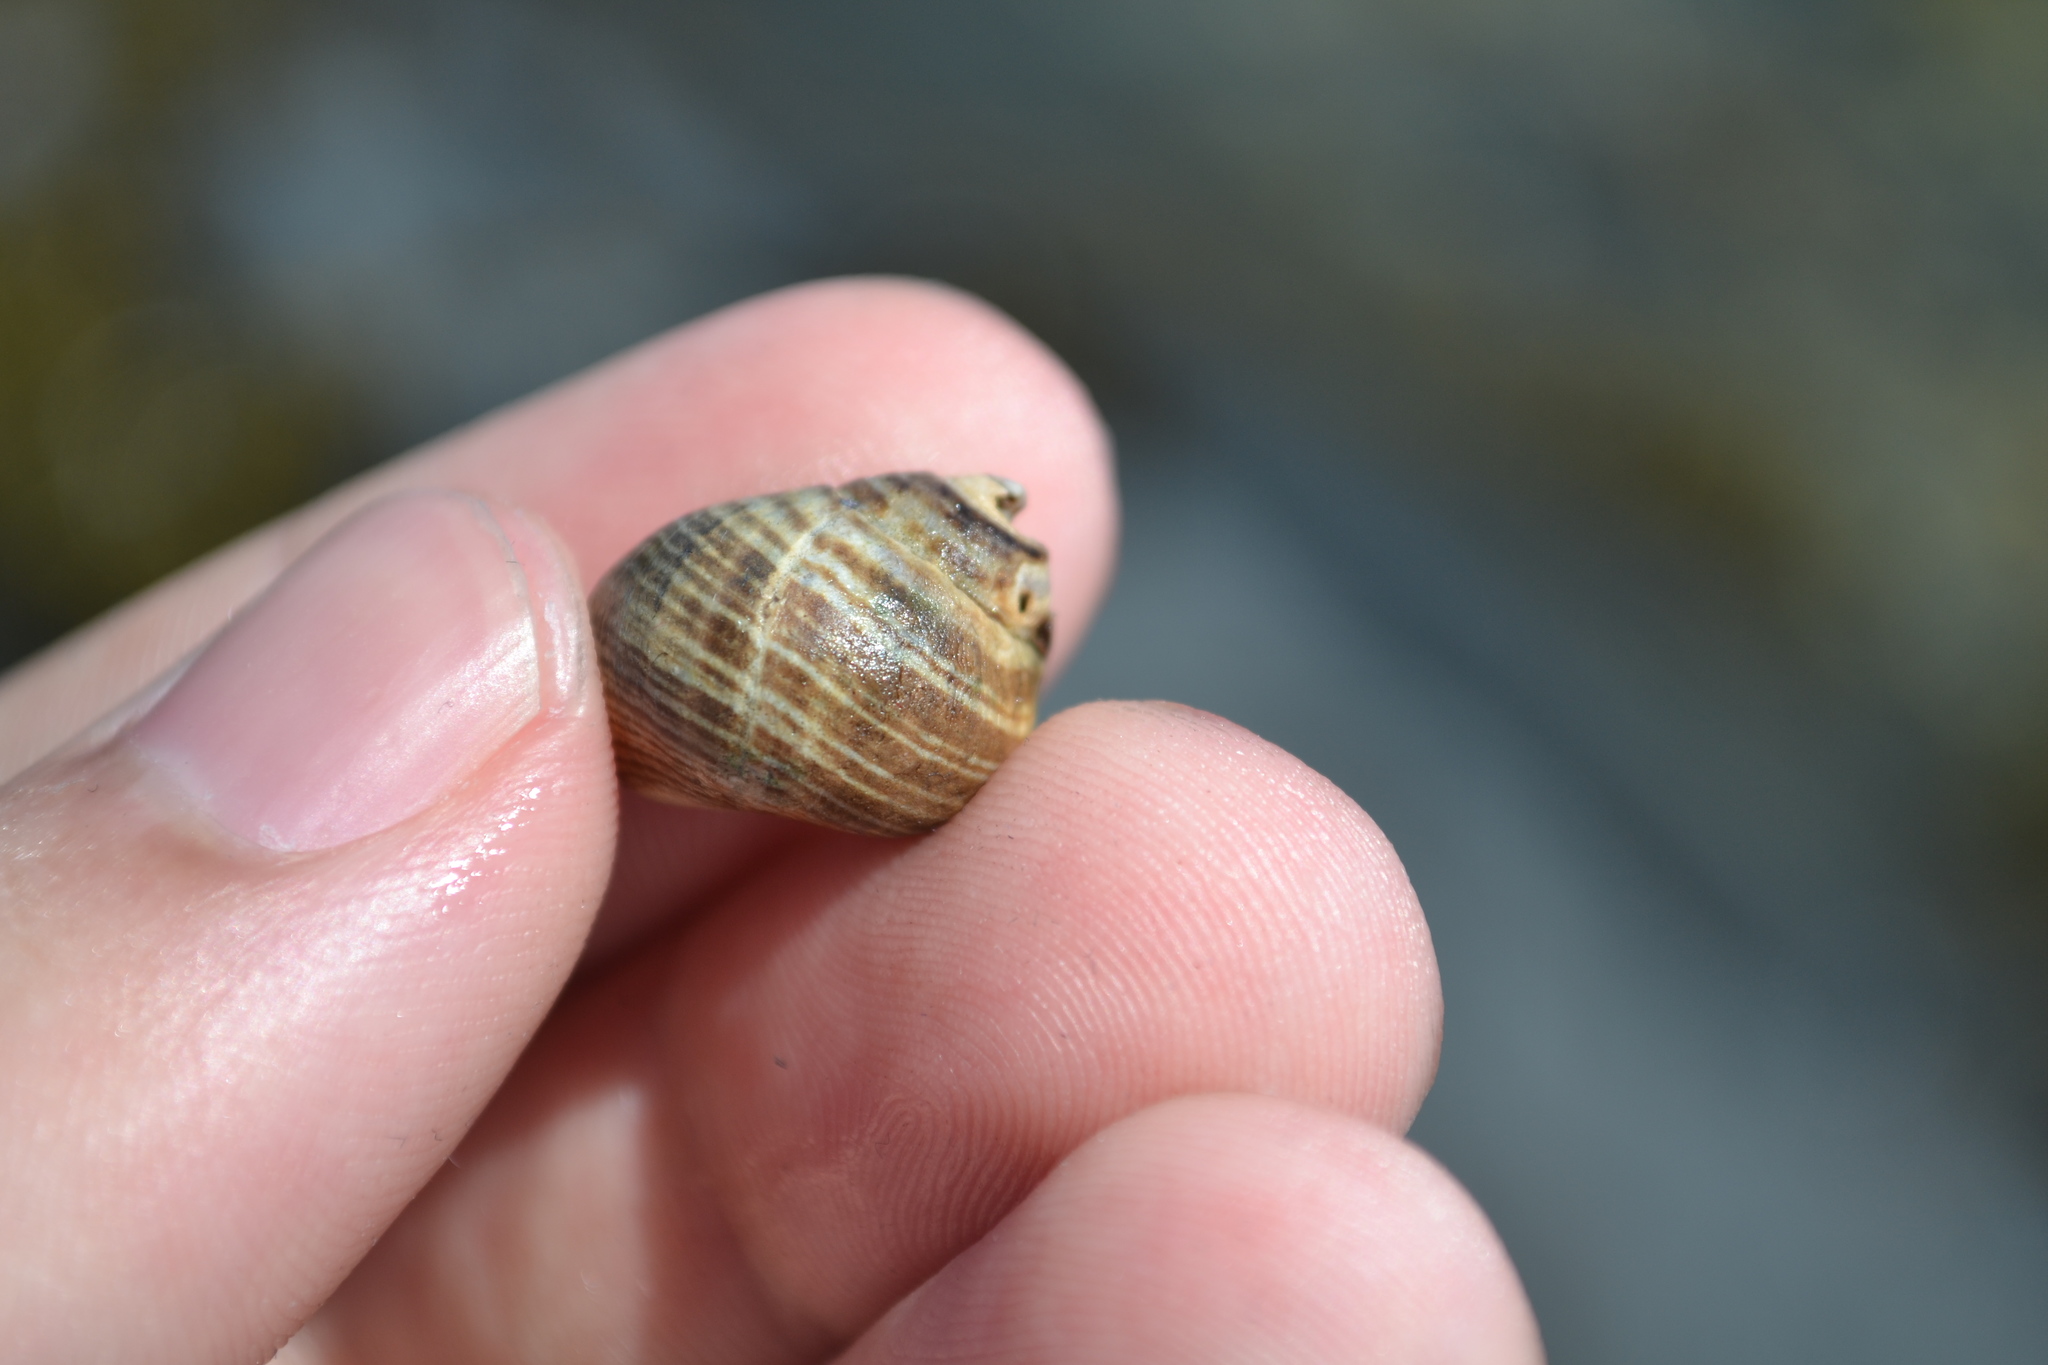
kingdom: Animalia
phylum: Mollusca
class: Gastropoda
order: Littorinimorpha
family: Littorinidae
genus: Littorina
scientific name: Littorina littorea
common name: Common periwinkle
